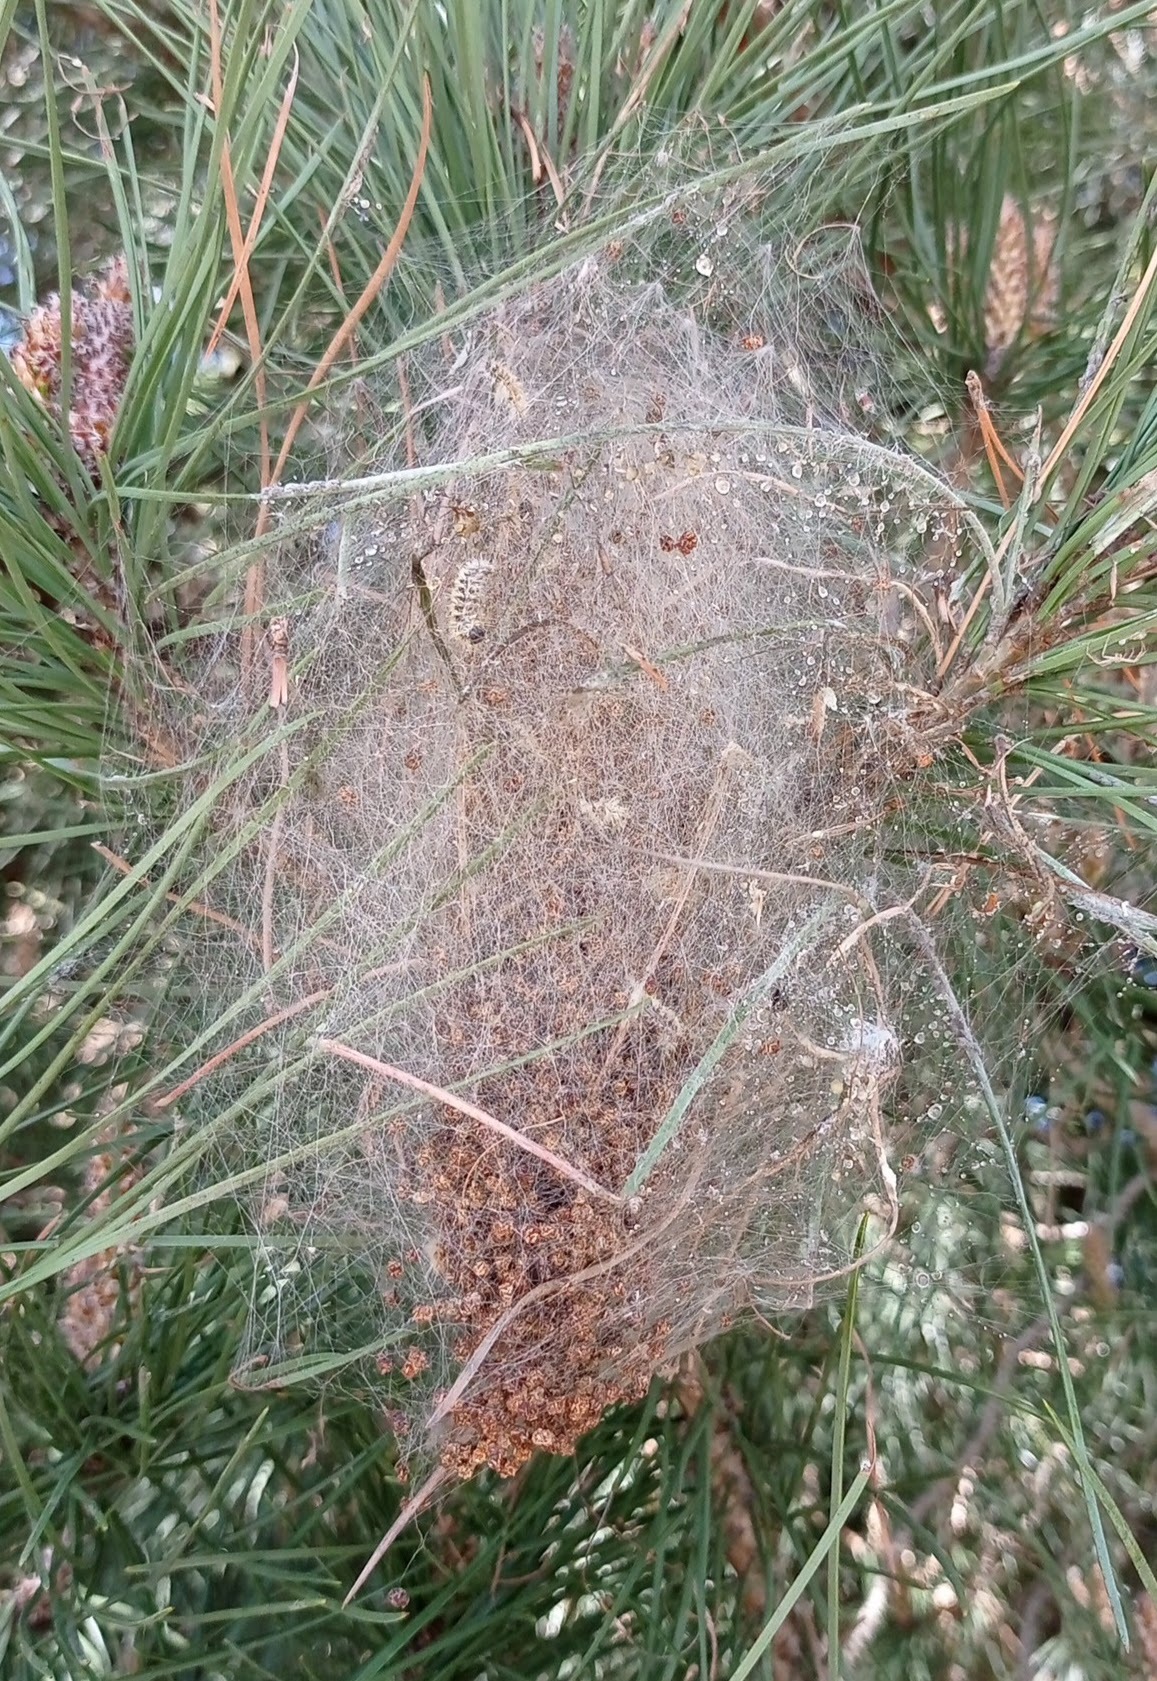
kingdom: Animalia
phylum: Arthropoda
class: Insecta
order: Lepidoptera
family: Notodontidae
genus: Thaumetopoea
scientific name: Thaumetopoea pityocampa
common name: Pine processionary
